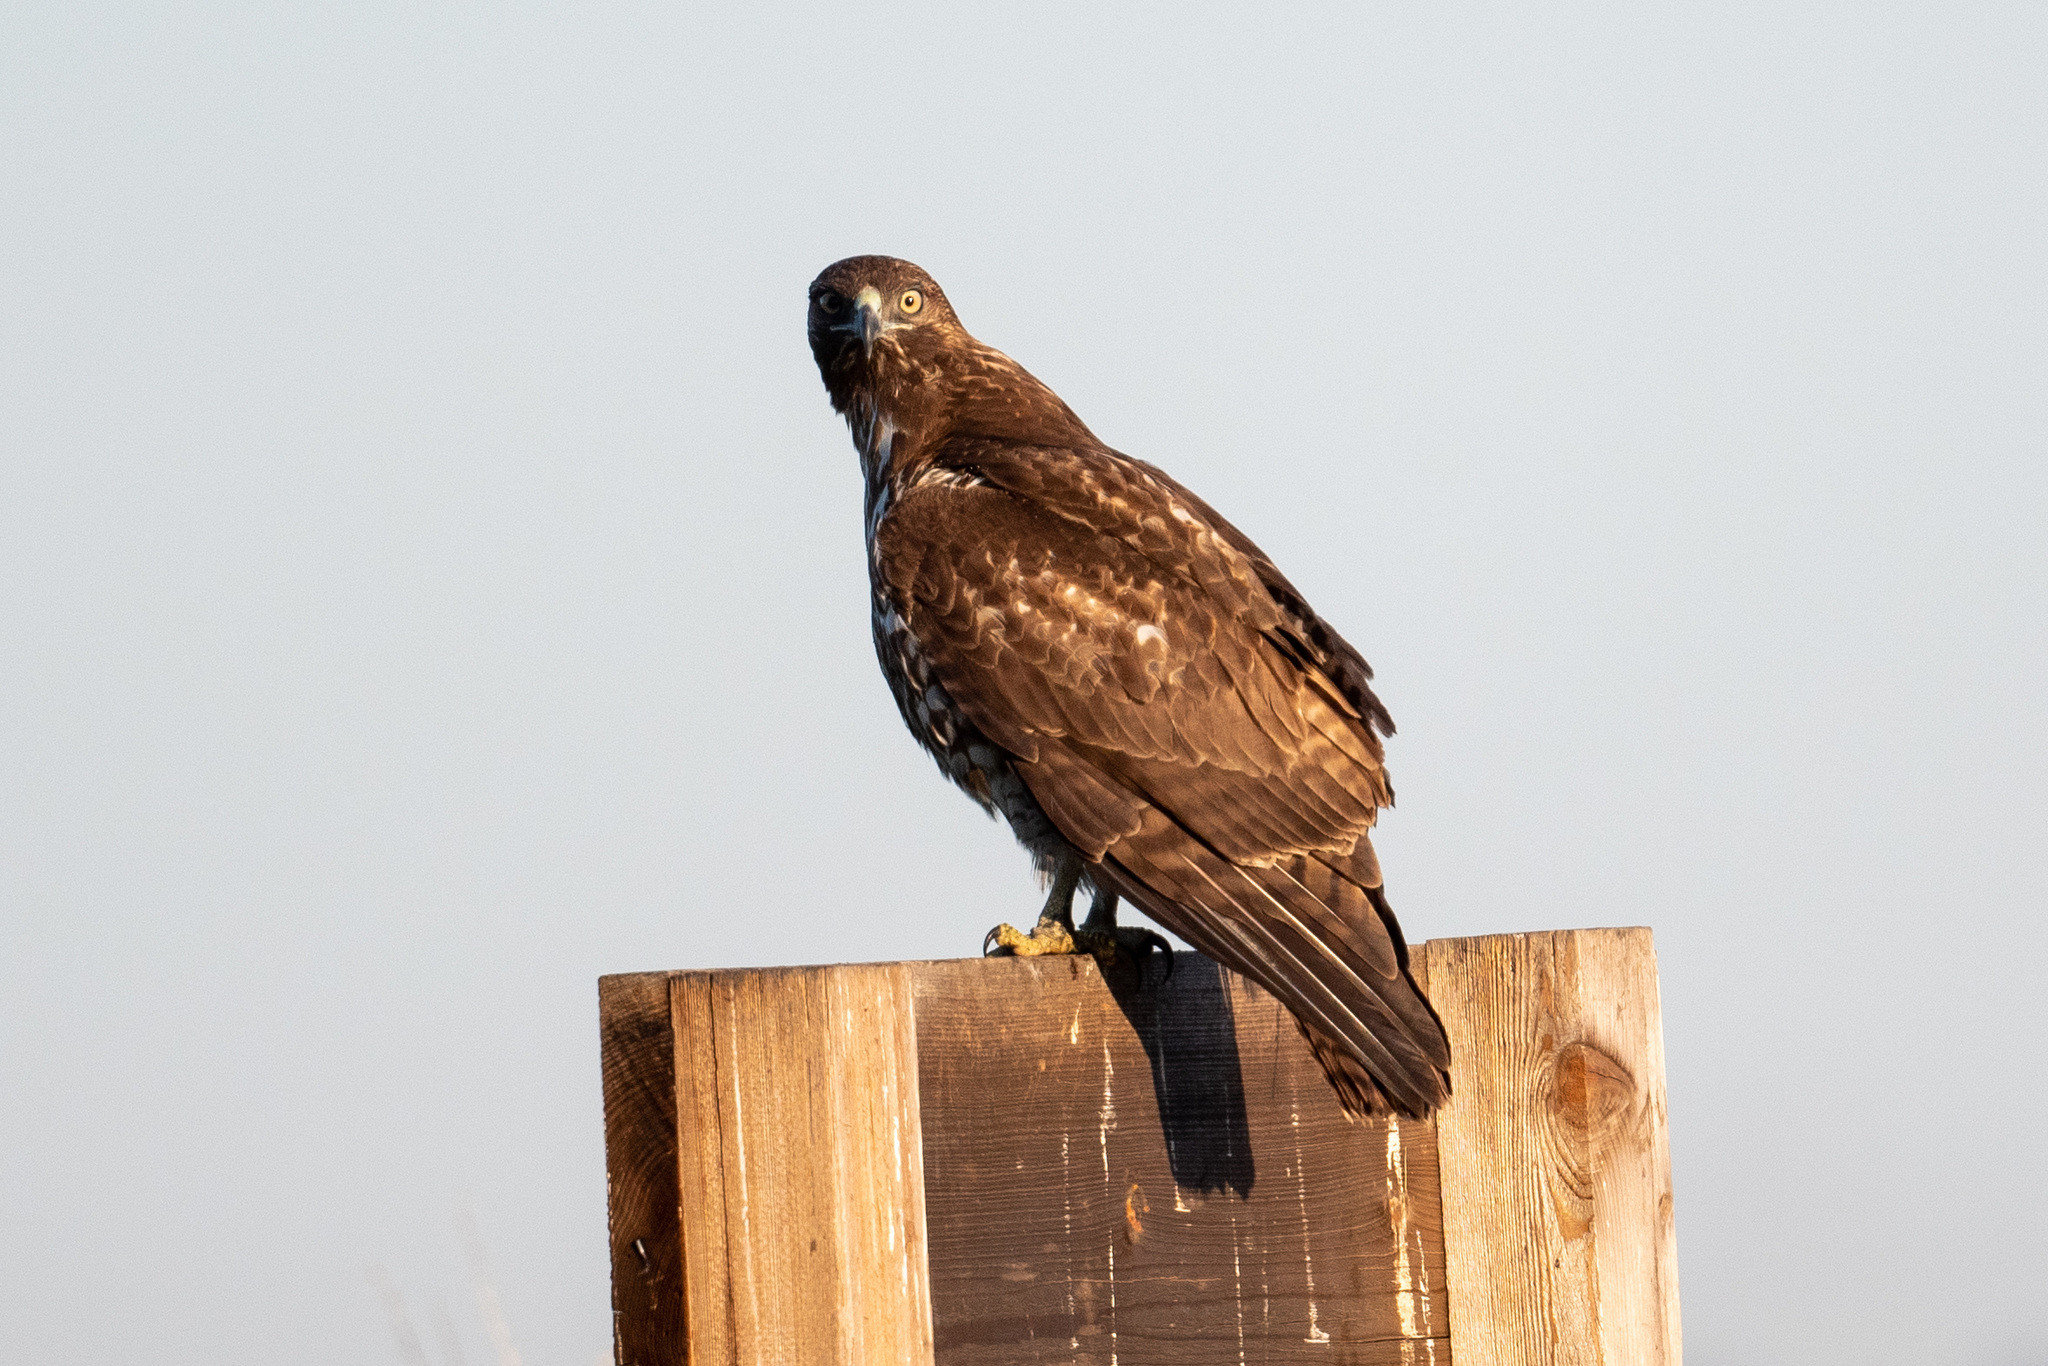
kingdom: Animalia
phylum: Chordata
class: Aves
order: Accipitriformes
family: Accipitridae
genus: Buteo
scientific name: Buteo jamaicensis
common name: Red-tailed hawk
